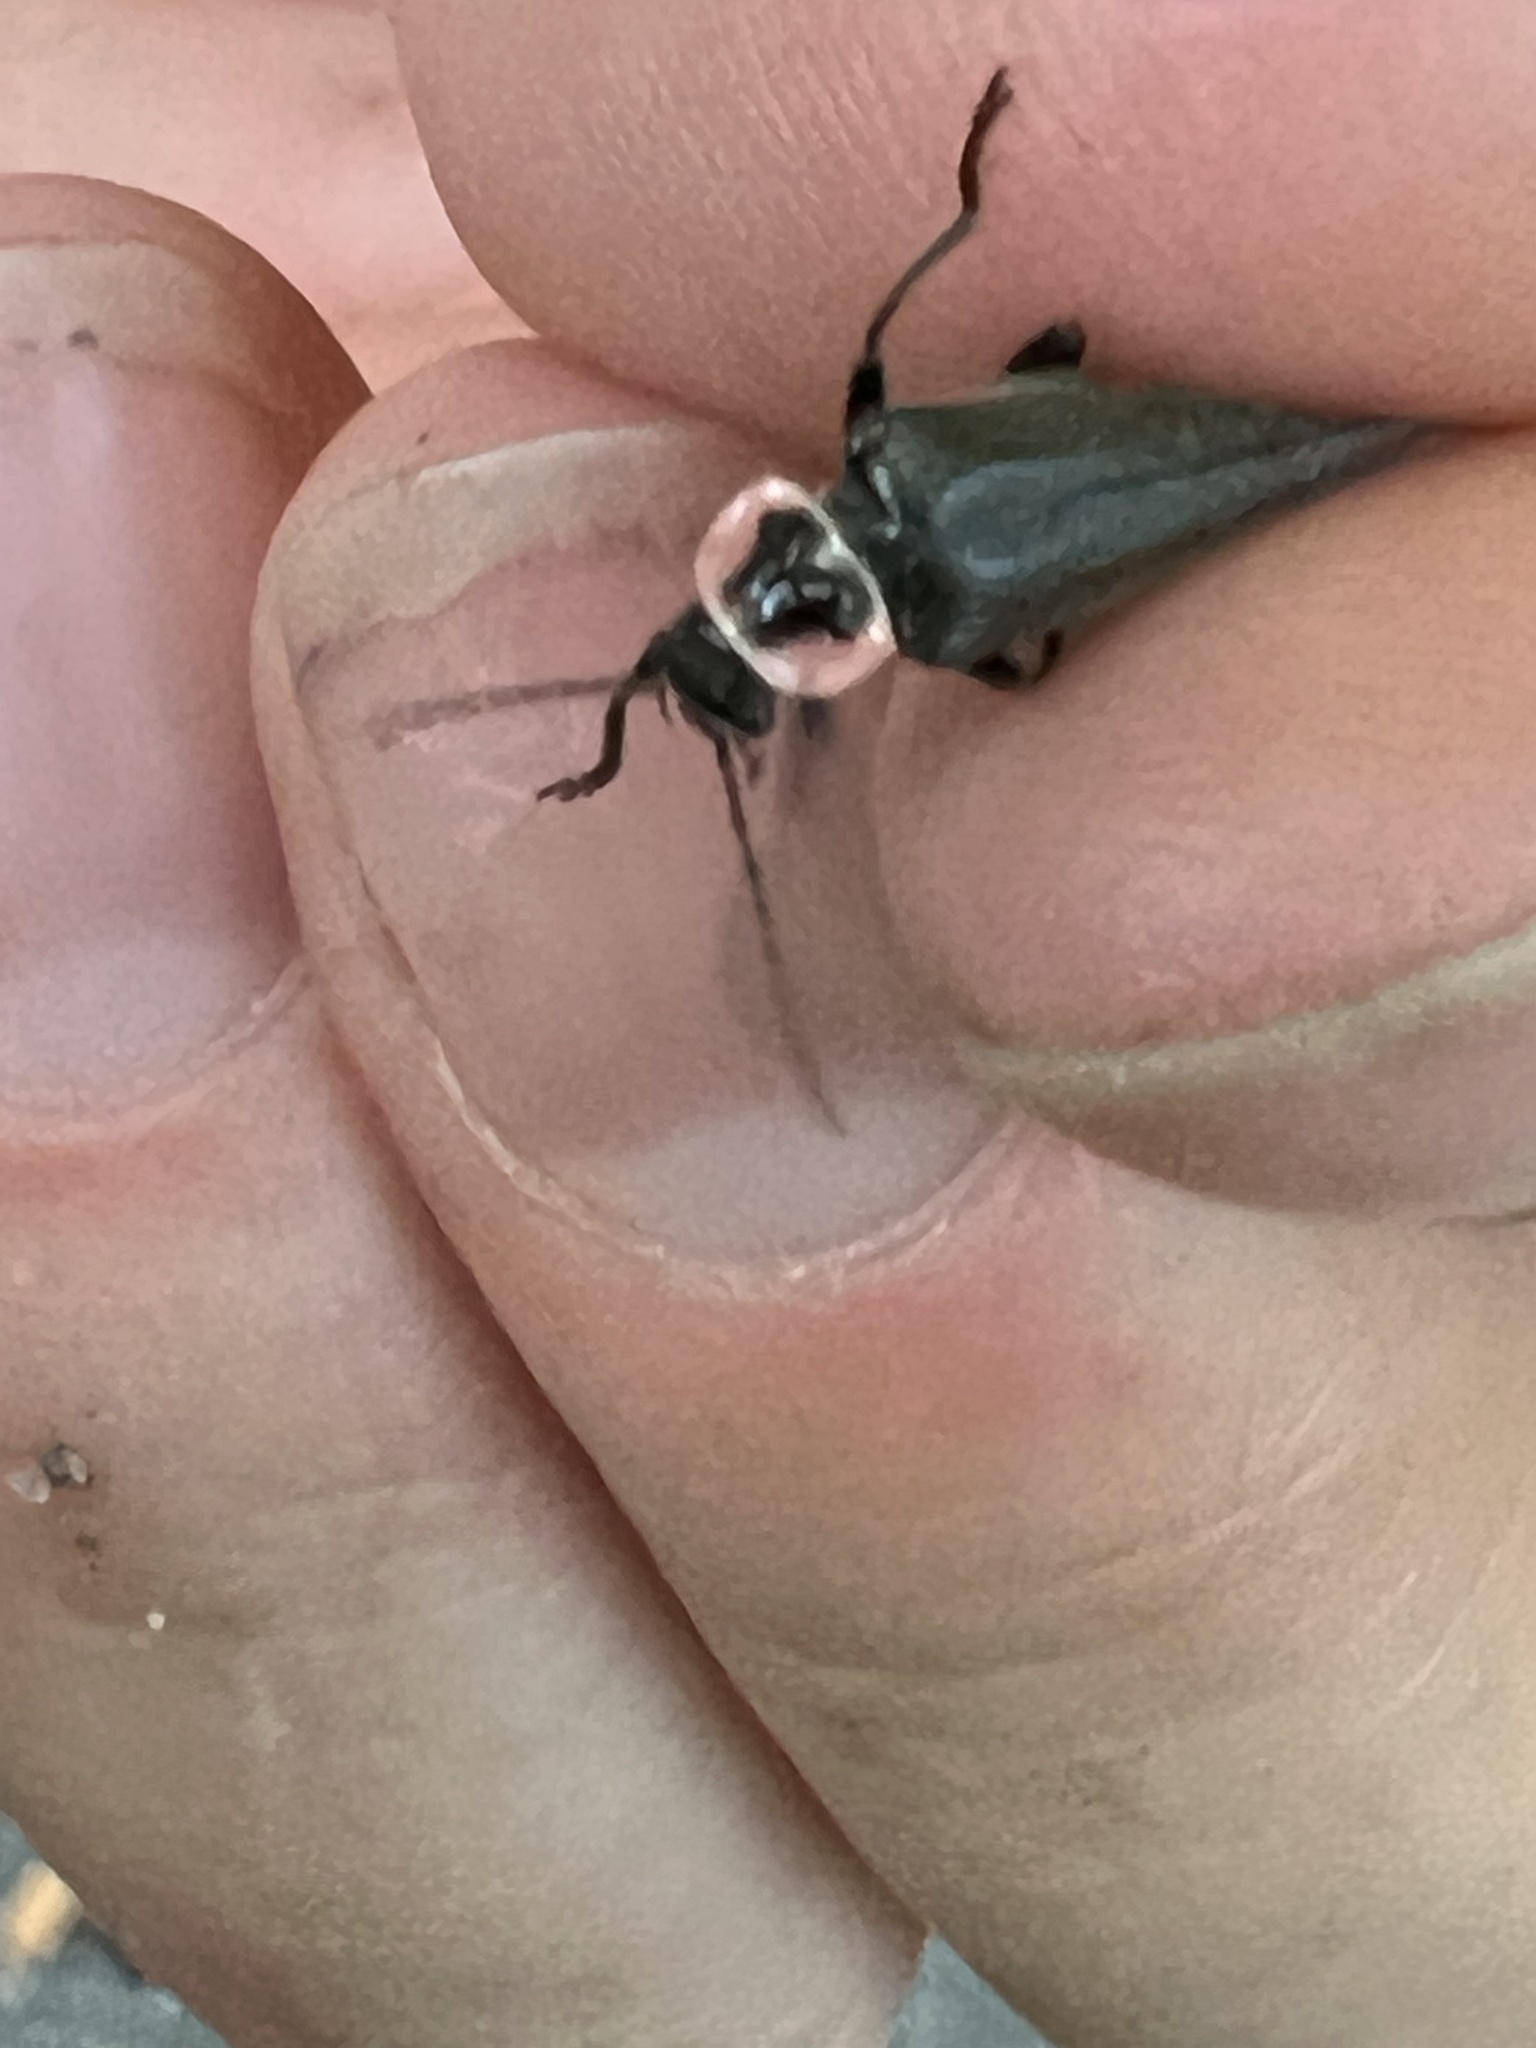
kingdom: Animalia
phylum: Arthropoda
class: Insecta
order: Coleoptera
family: Cantharidae
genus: Atalantycha
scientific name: Atalantycha neglecta
